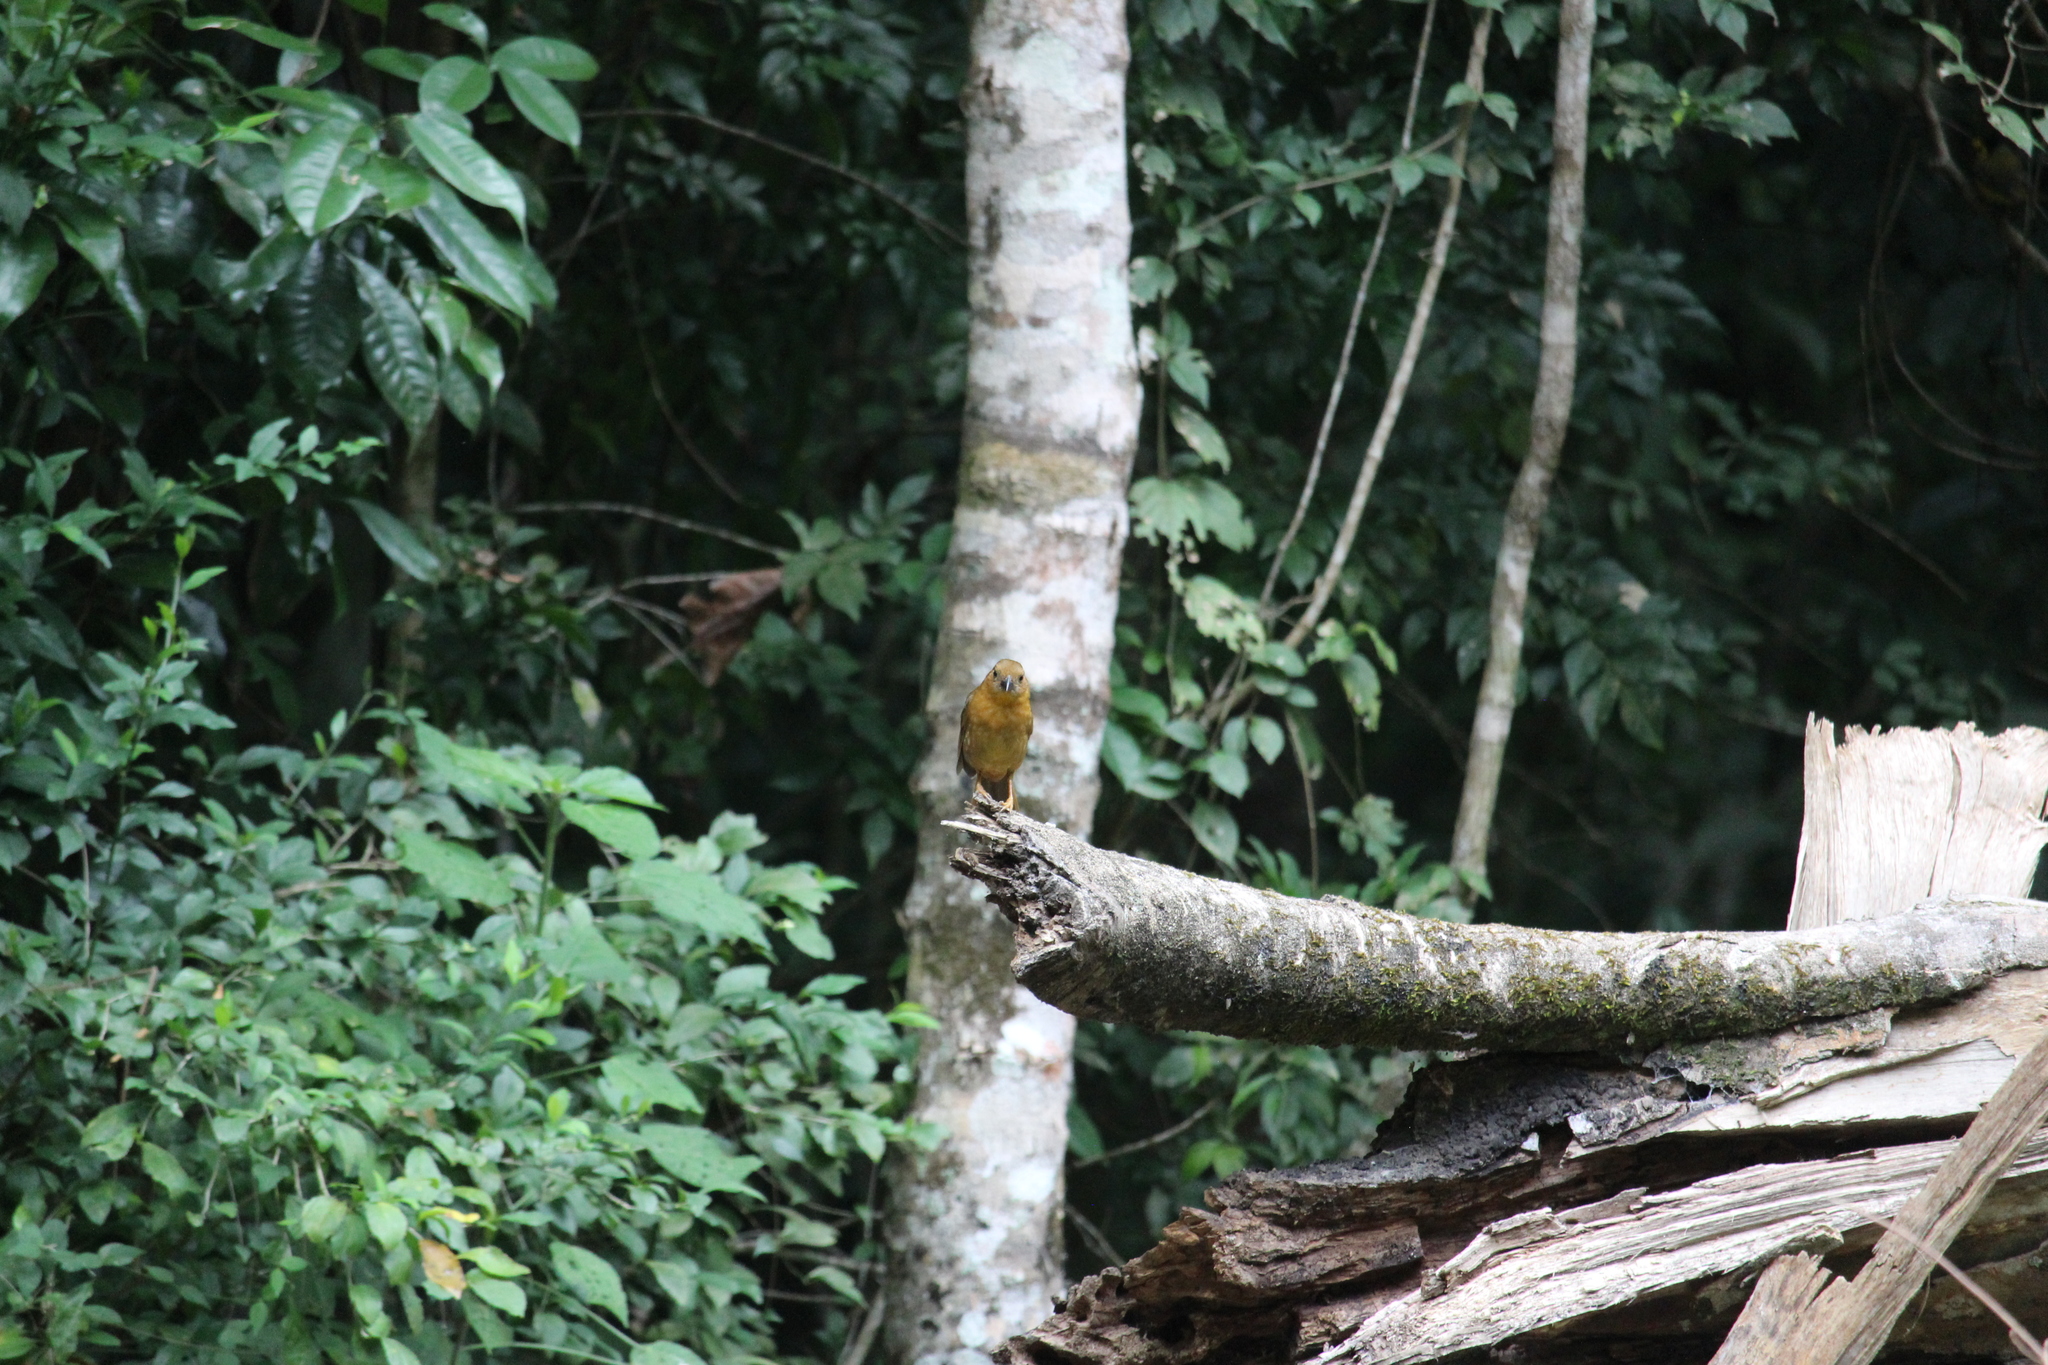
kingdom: Animalia
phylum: Chordata
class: Aves
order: Passeriformes
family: Cardinalidae
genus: Habia
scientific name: Habia fuscicauda
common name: Red-throated ant-tanager
